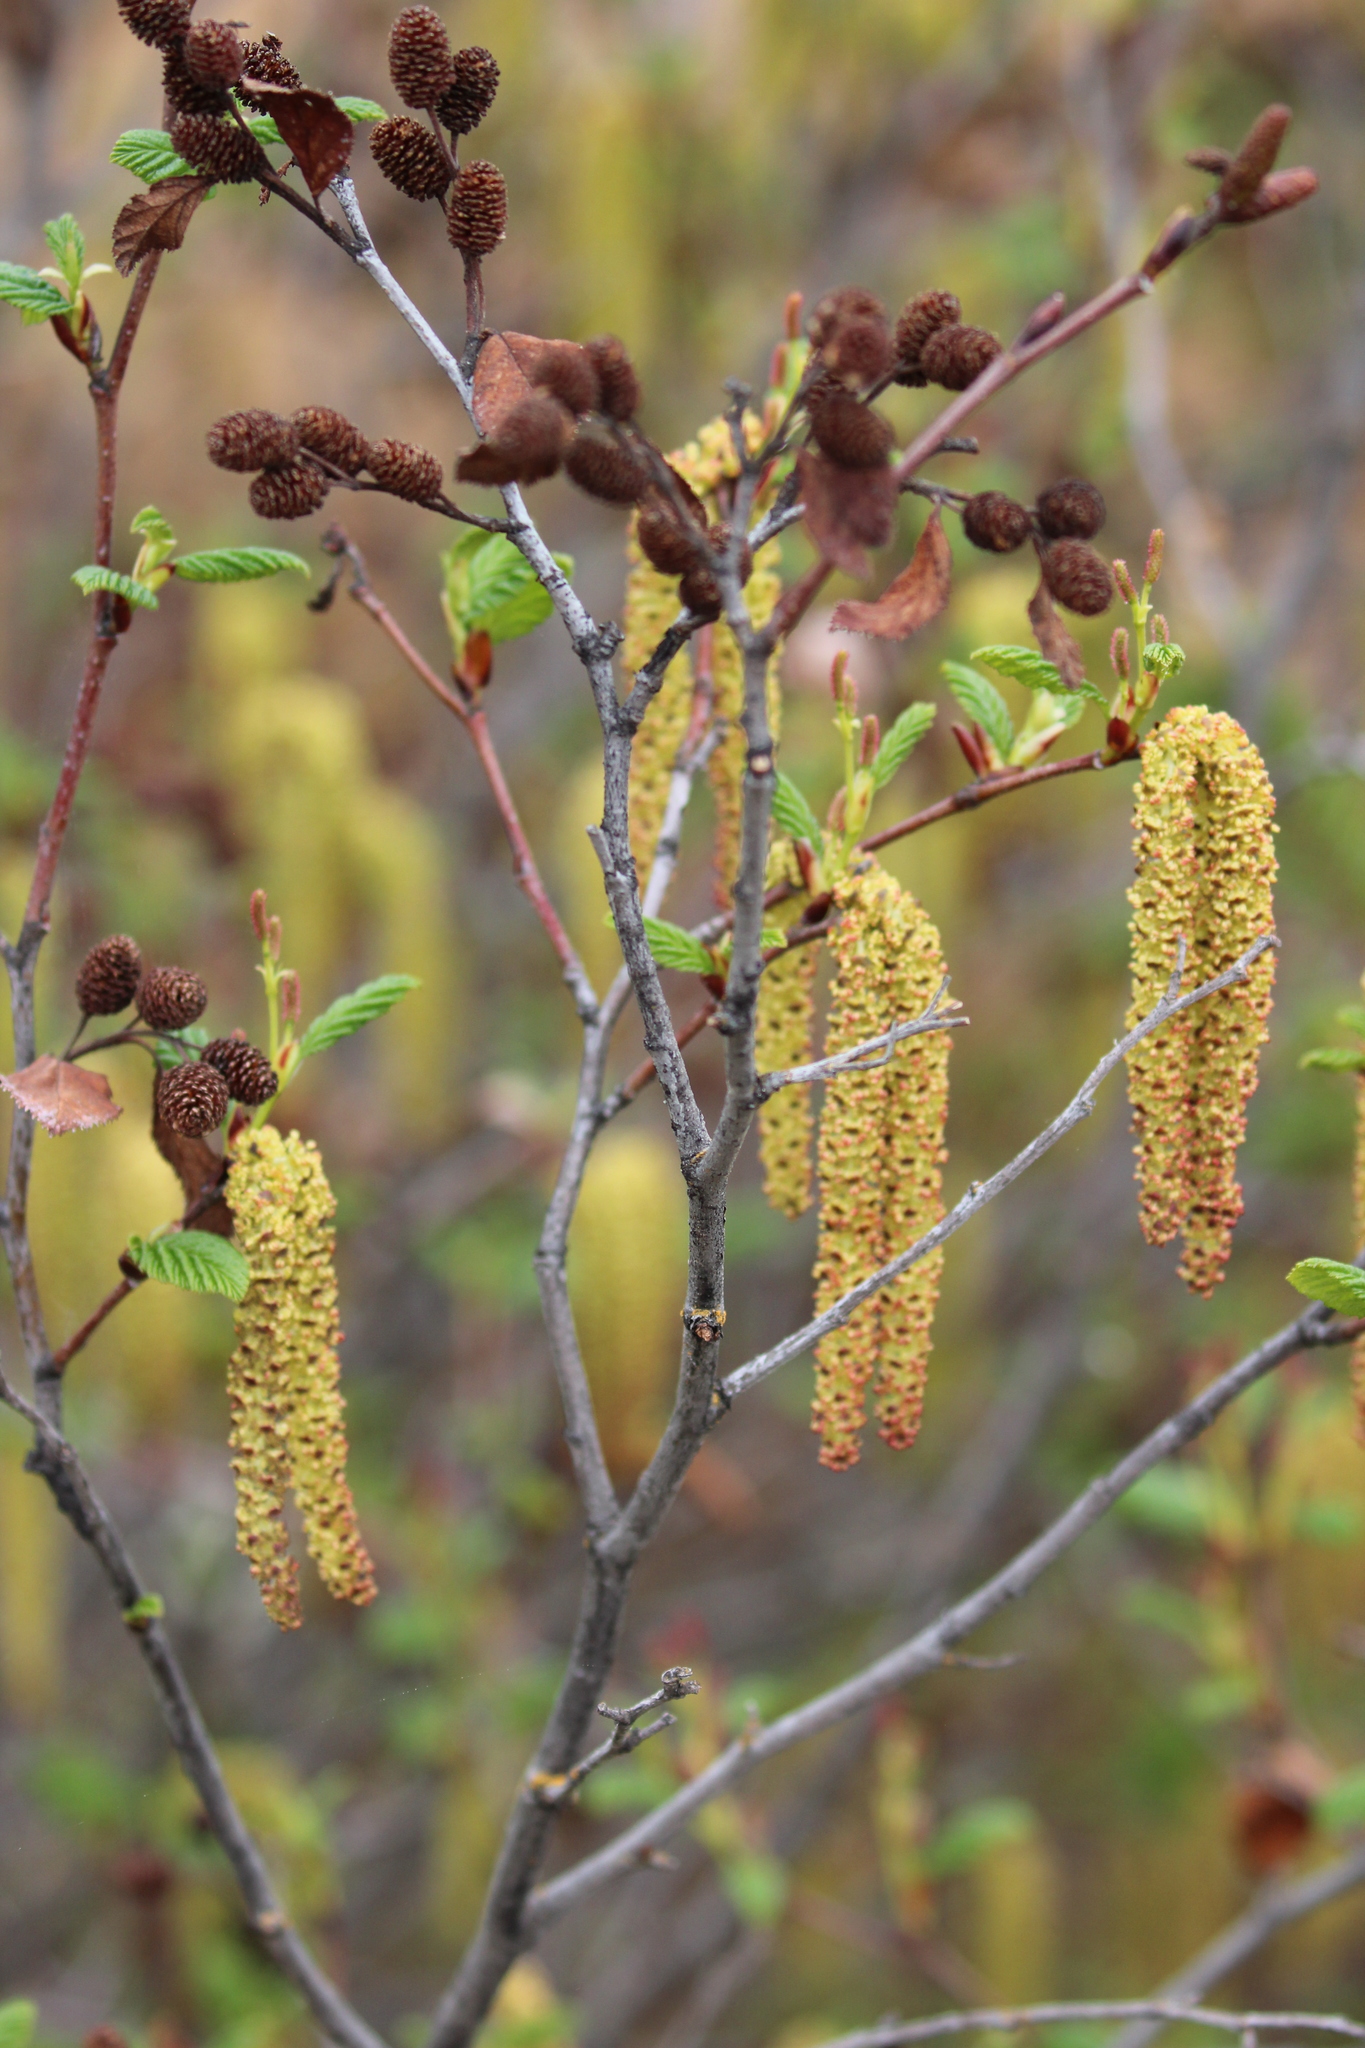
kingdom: Plantae
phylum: Tracheophyta
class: Magnoliopsida
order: Fagales
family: Betulaceae
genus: Alnus
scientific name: Alnus incana
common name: Grey alder
